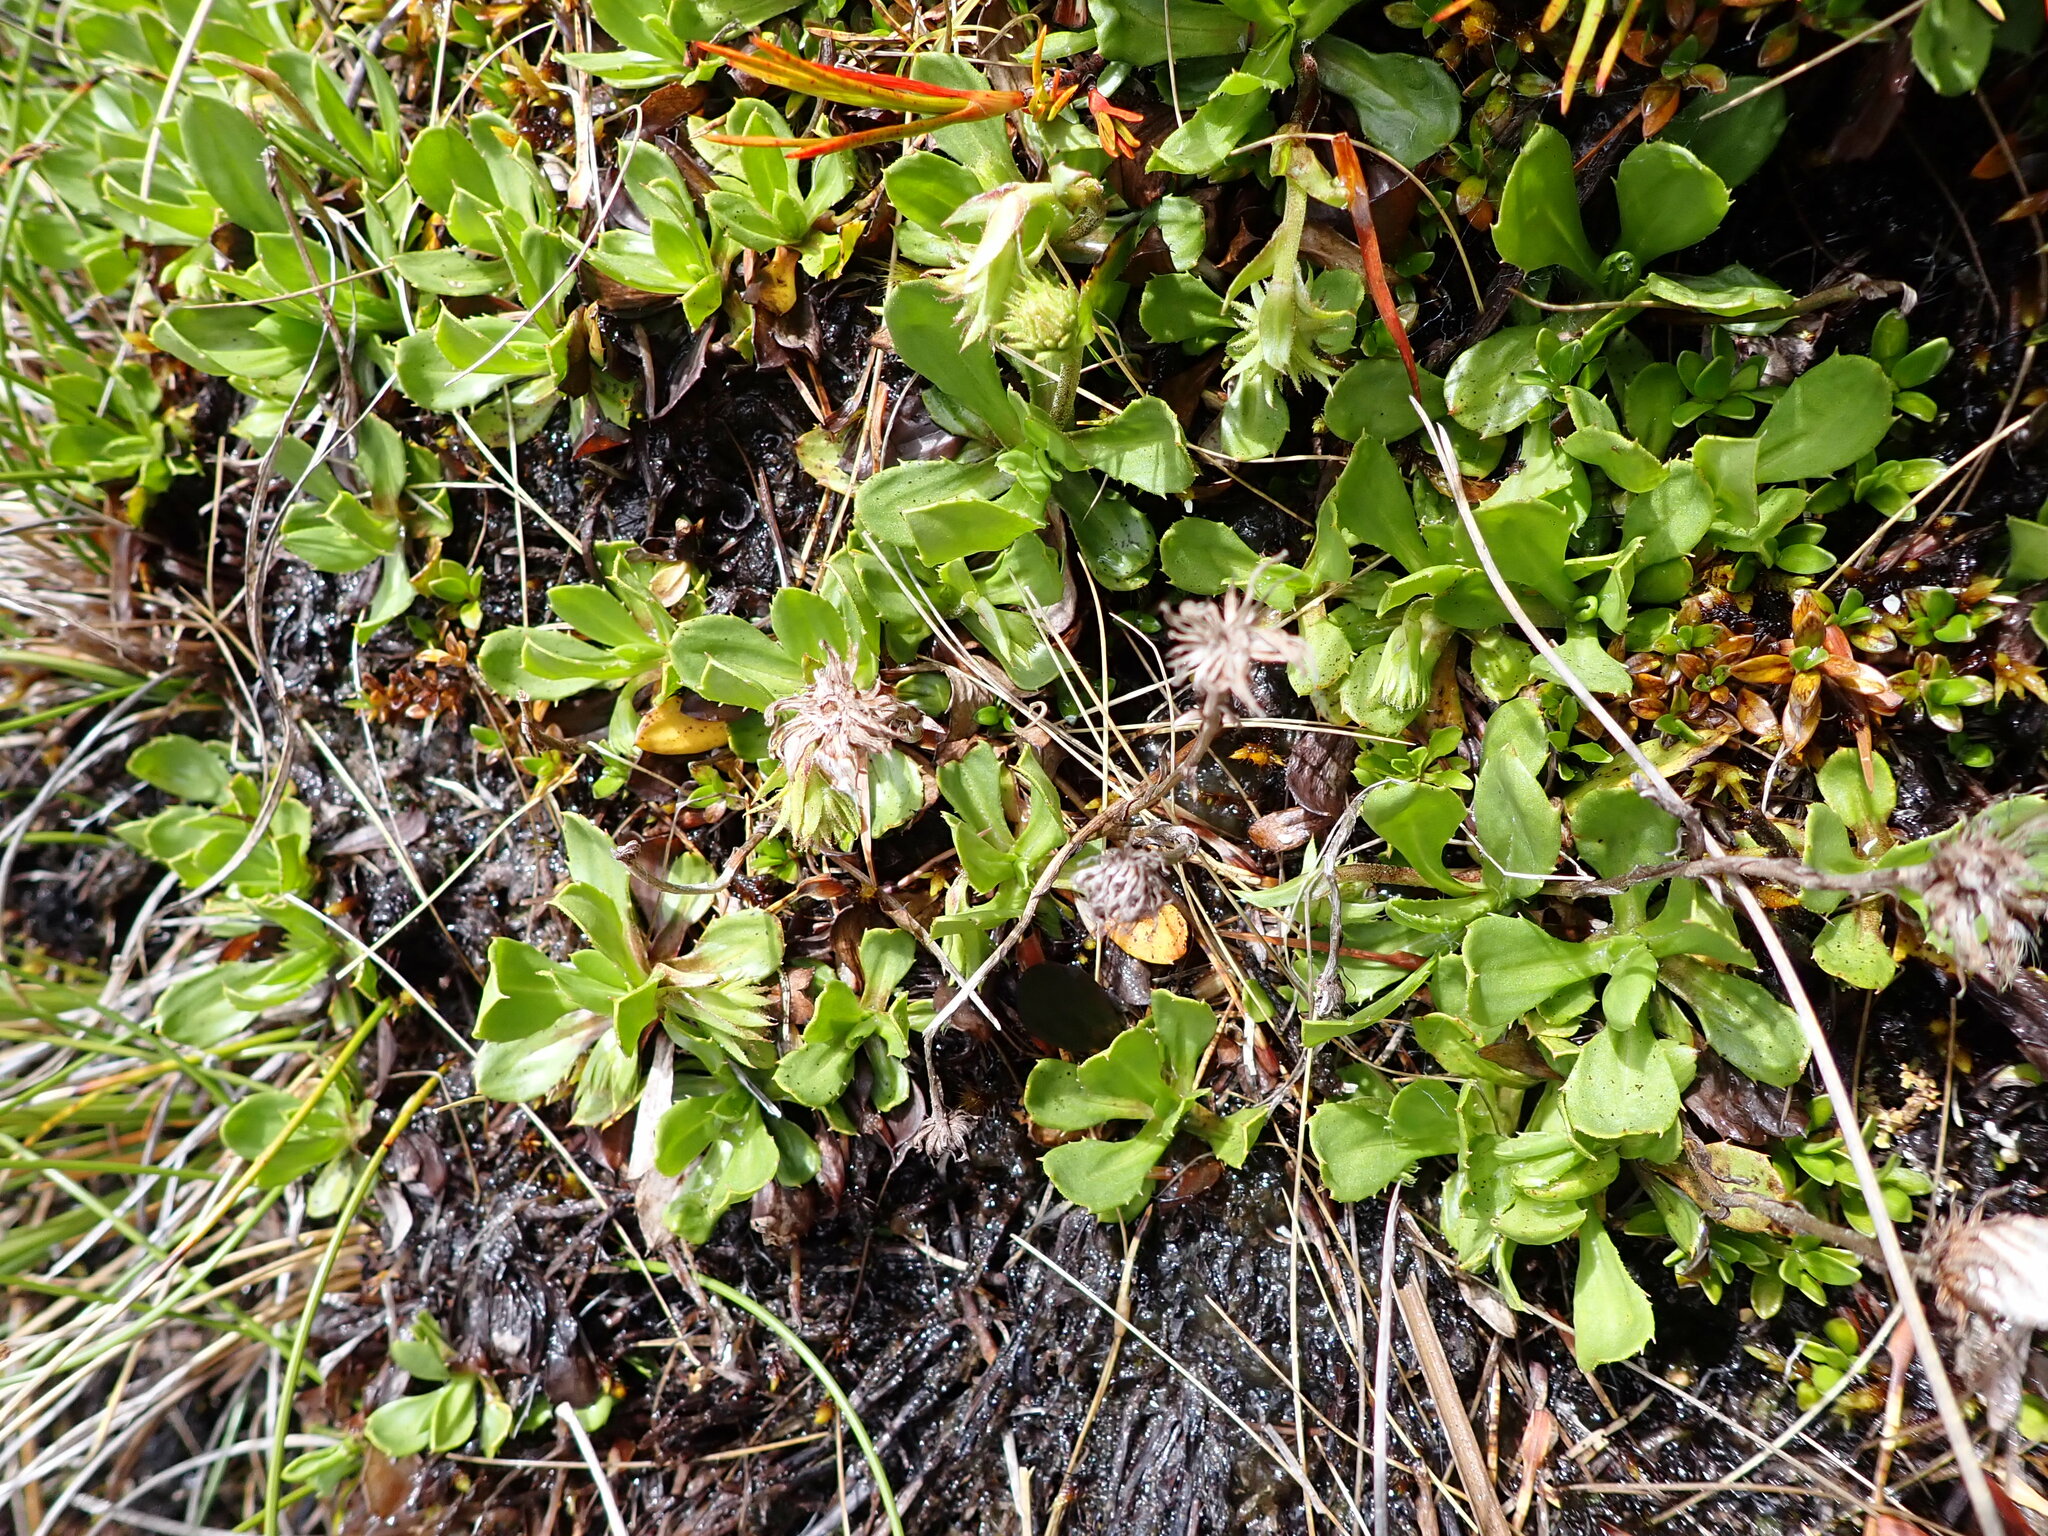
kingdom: Plantae
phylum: Tracheophyta
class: Magnoliopsida
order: Asterales
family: Asteraceae
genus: Celmisia
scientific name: Celmisia glandulosa
